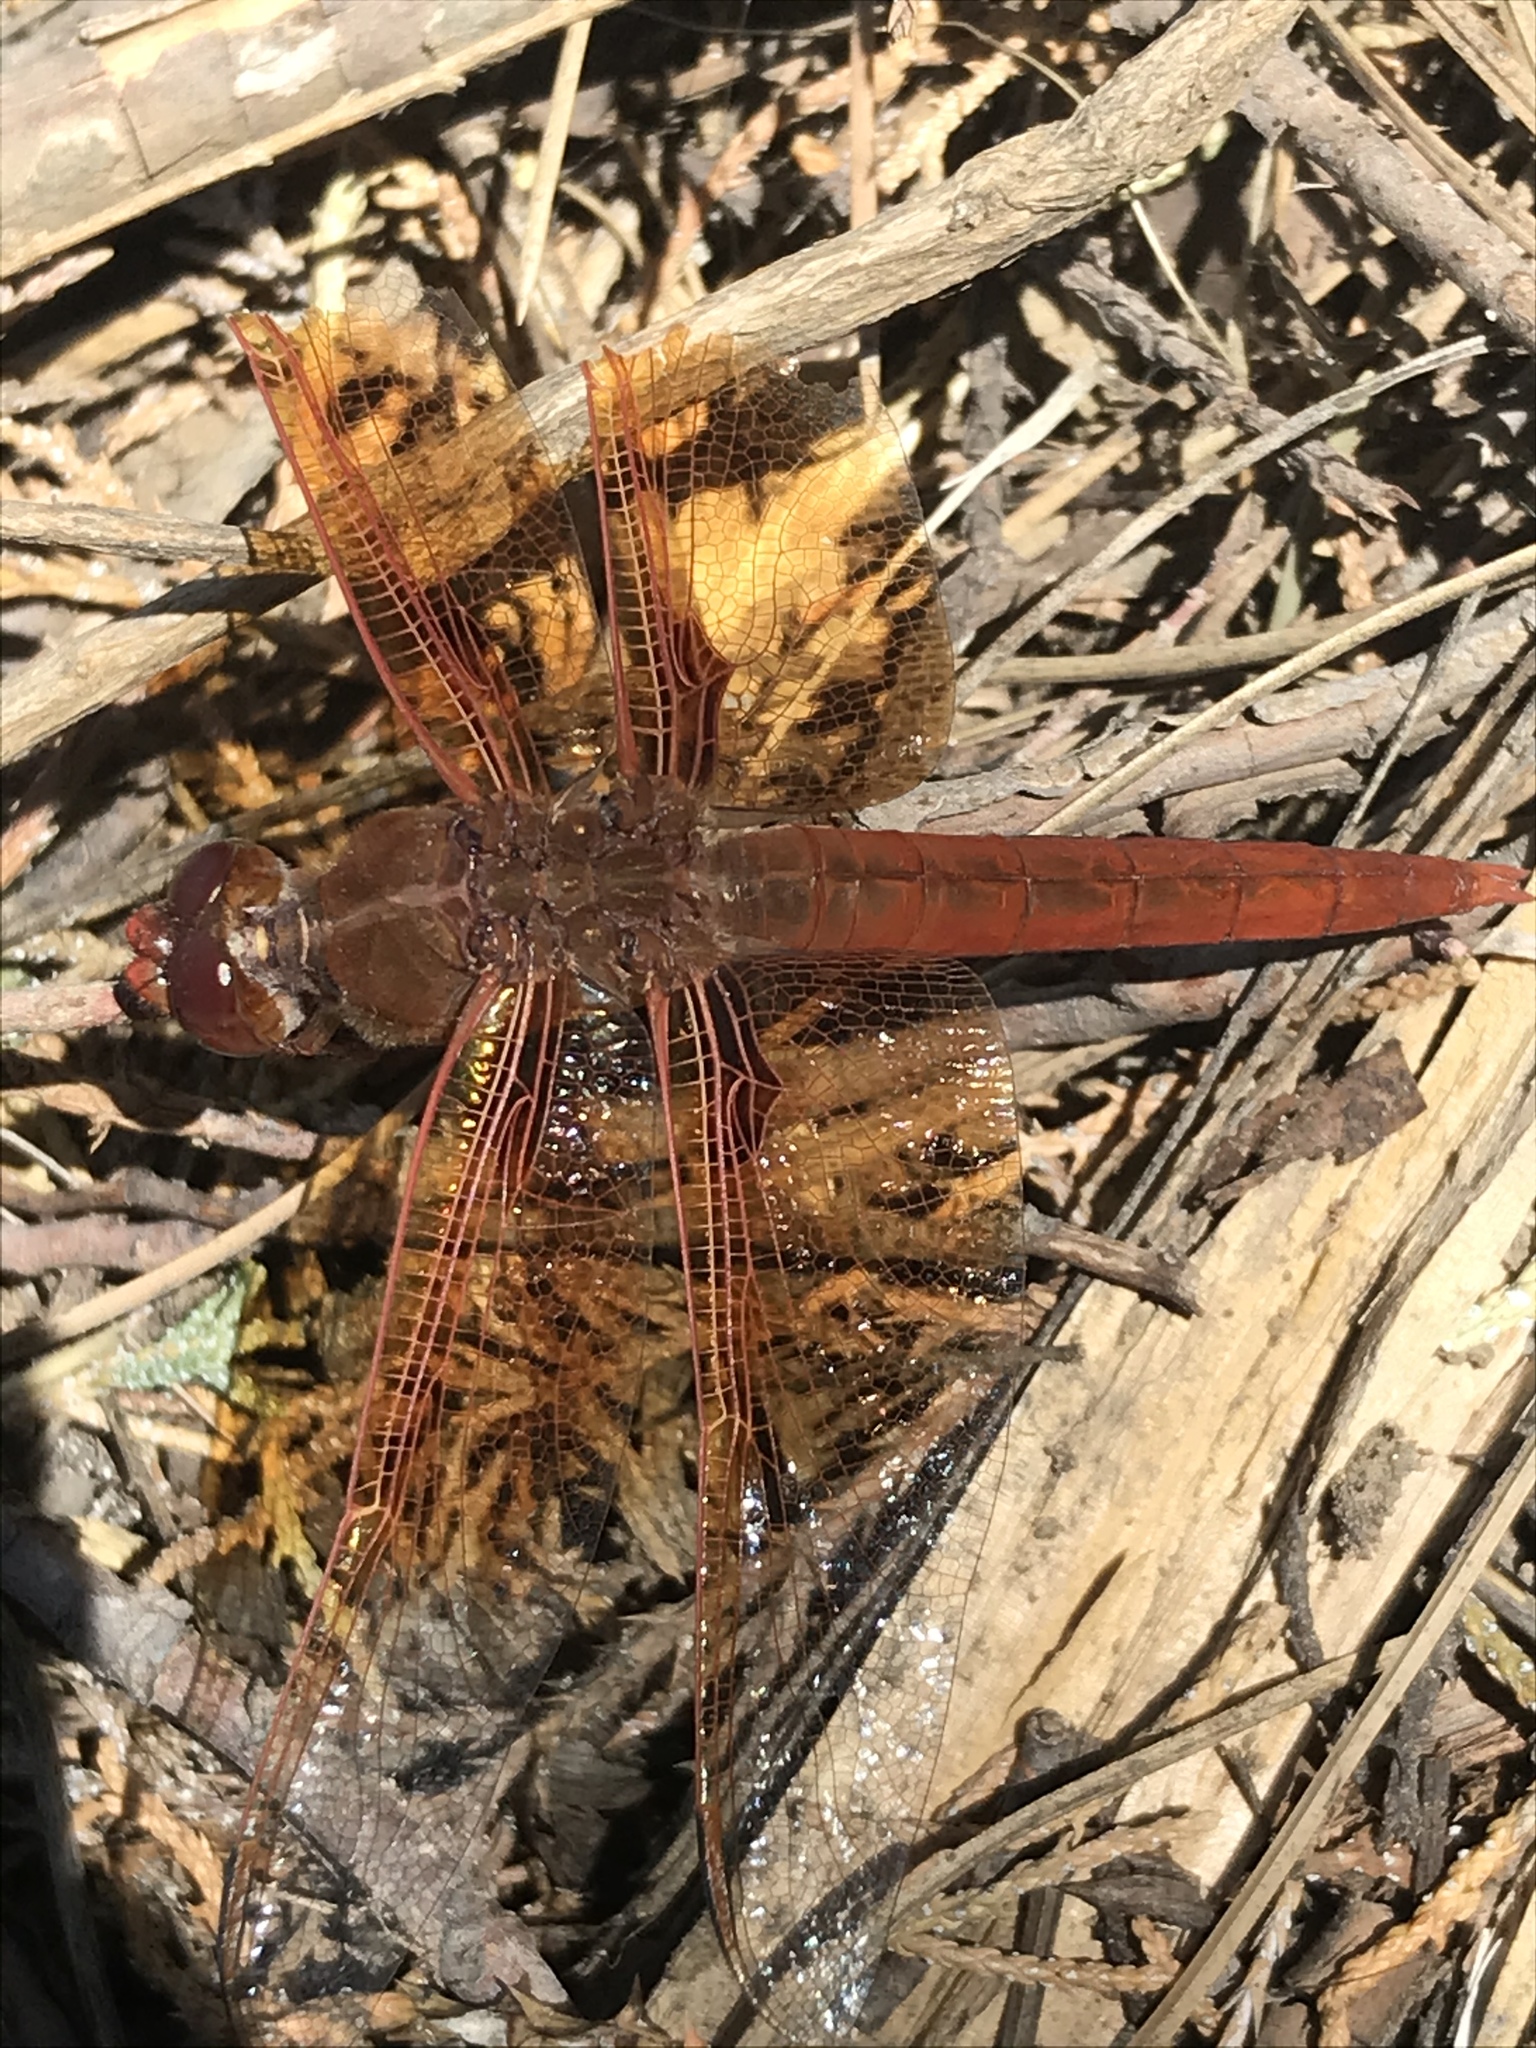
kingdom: Animalia
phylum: Arthropoda
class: Insecta
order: Odonata
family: Libellulidae
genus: Libellula
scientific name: Libellula saturata
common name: Flame skimmer
